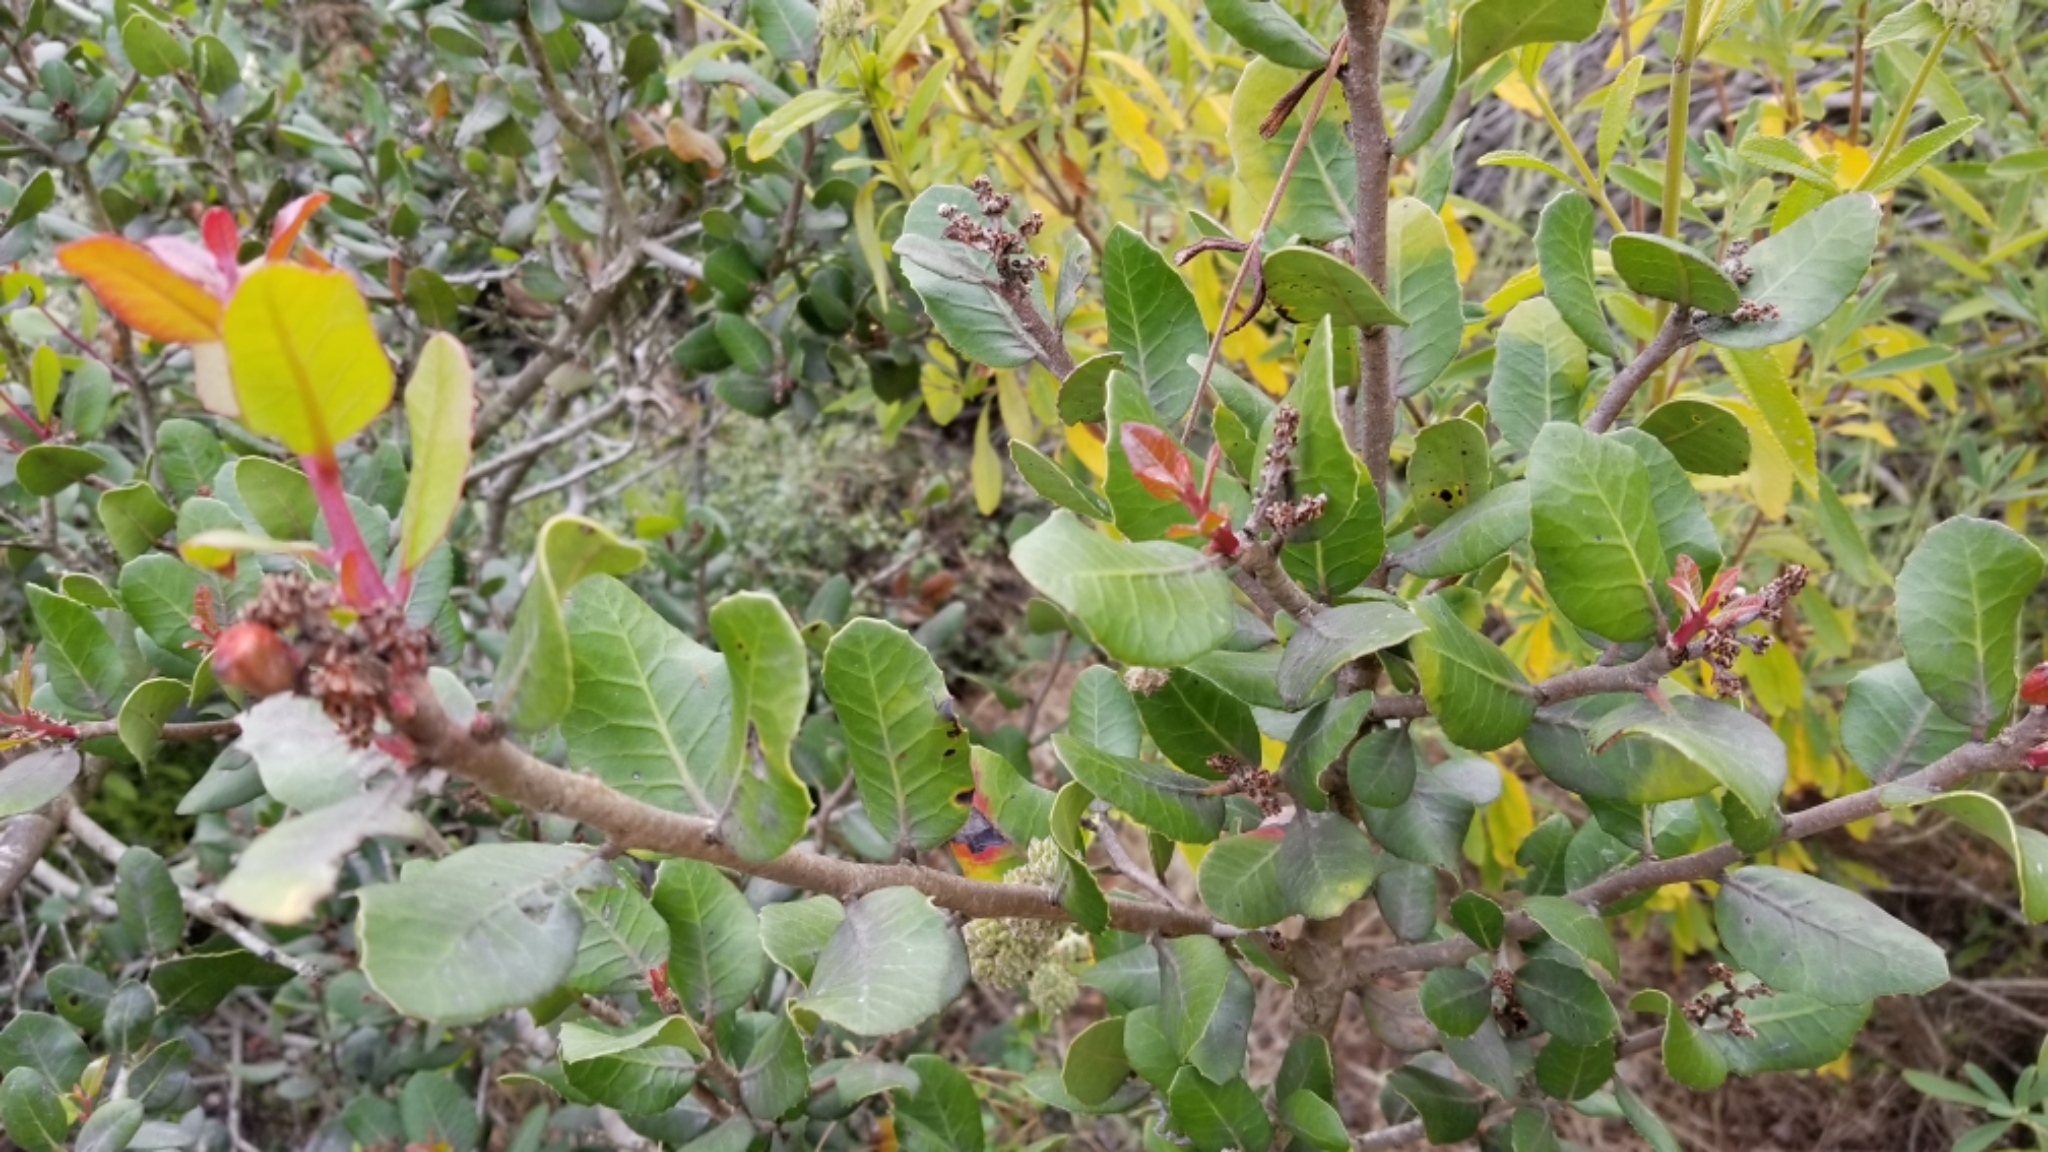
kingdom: Plantae
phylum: Tracheophyta
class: Magnoliopsida
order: Sapindales
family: Anacardiaceae
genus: Rhus
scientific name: Rhus integrifolia
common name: Lemonade sumac
